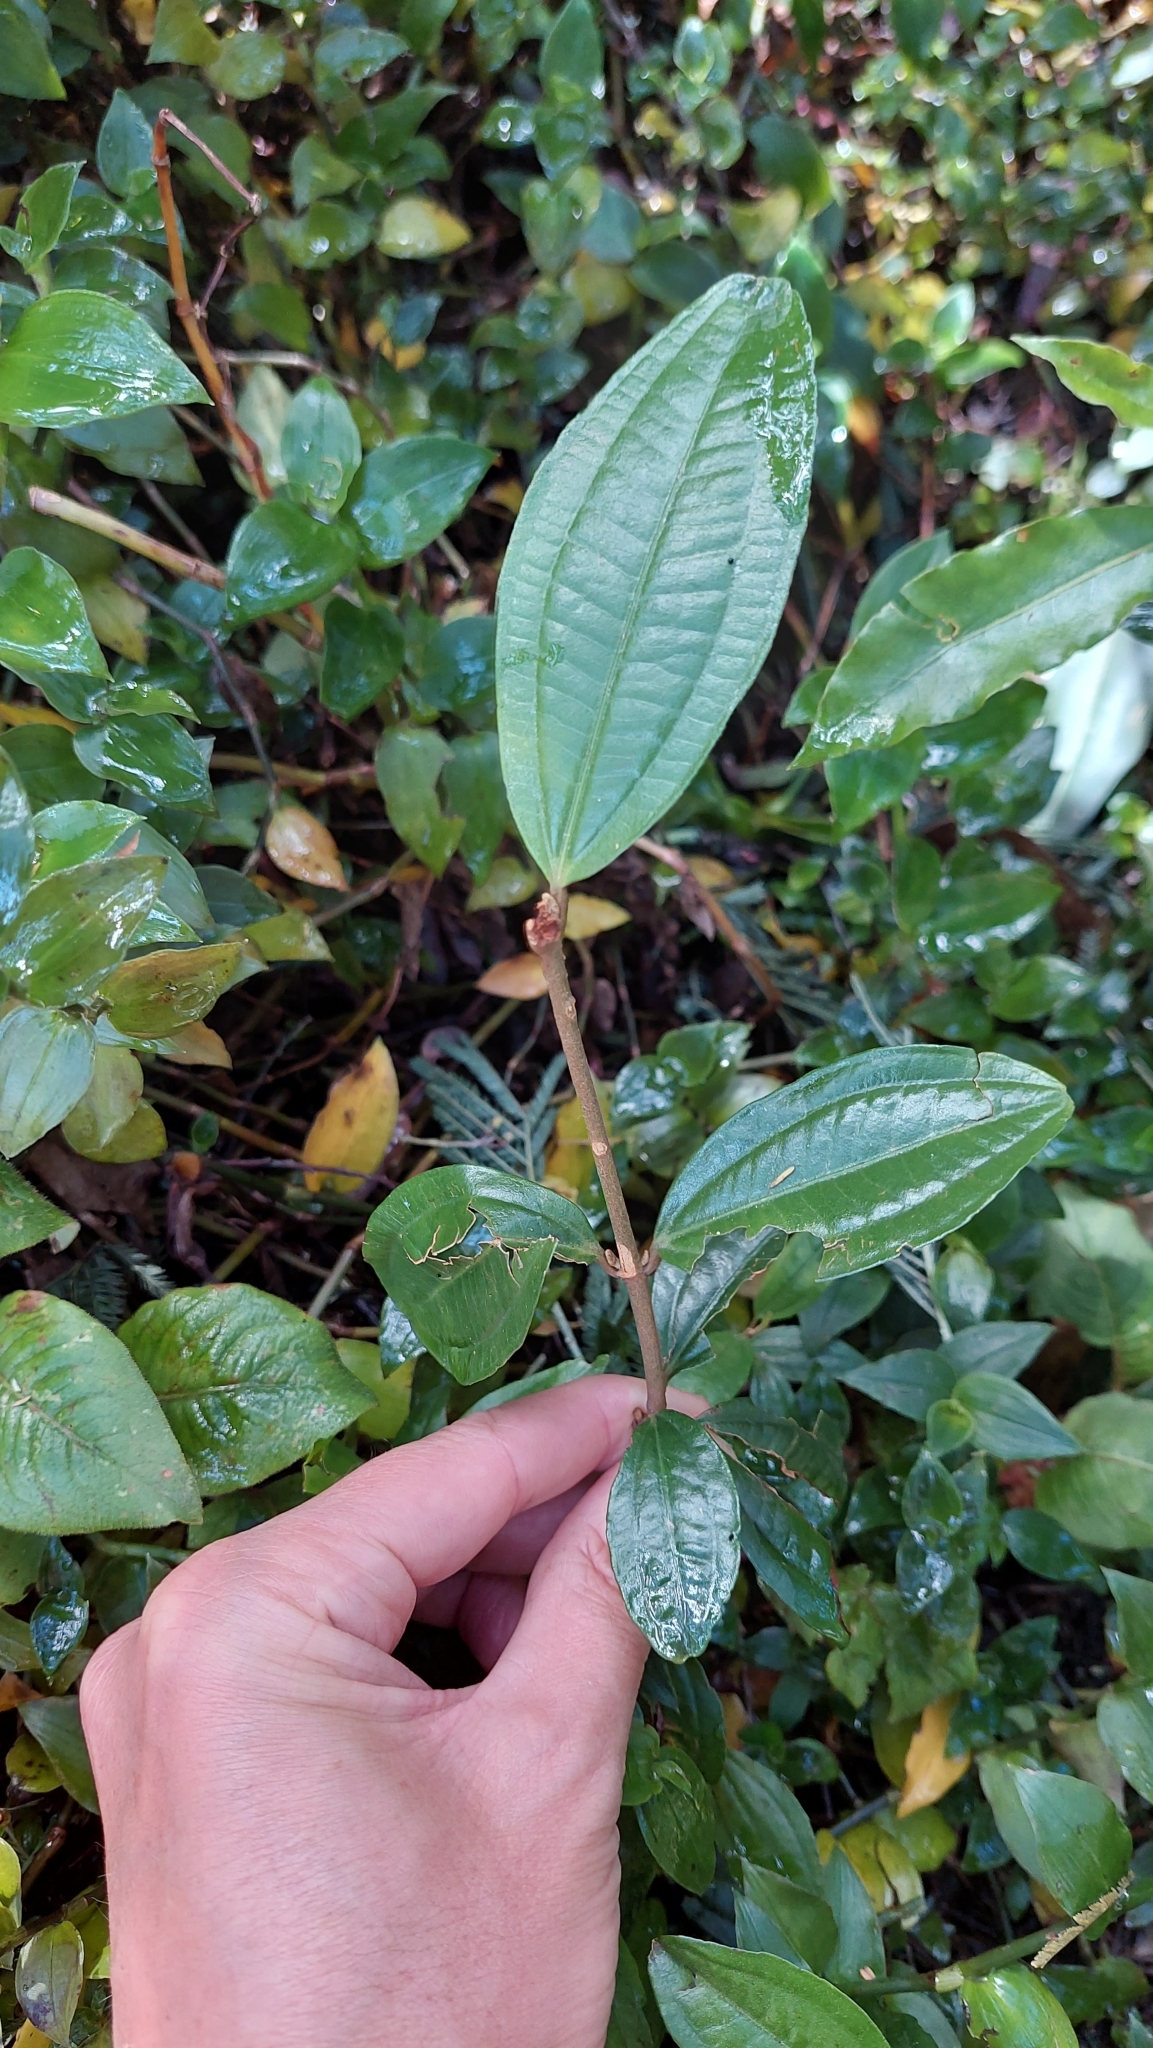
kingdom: Plantae
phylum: Tracheophyta
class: Magnoliopsida
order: Myrtales
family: Melastomataceae
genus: Miconia
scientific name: Miconia squamulosa
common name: Squamulose maya
